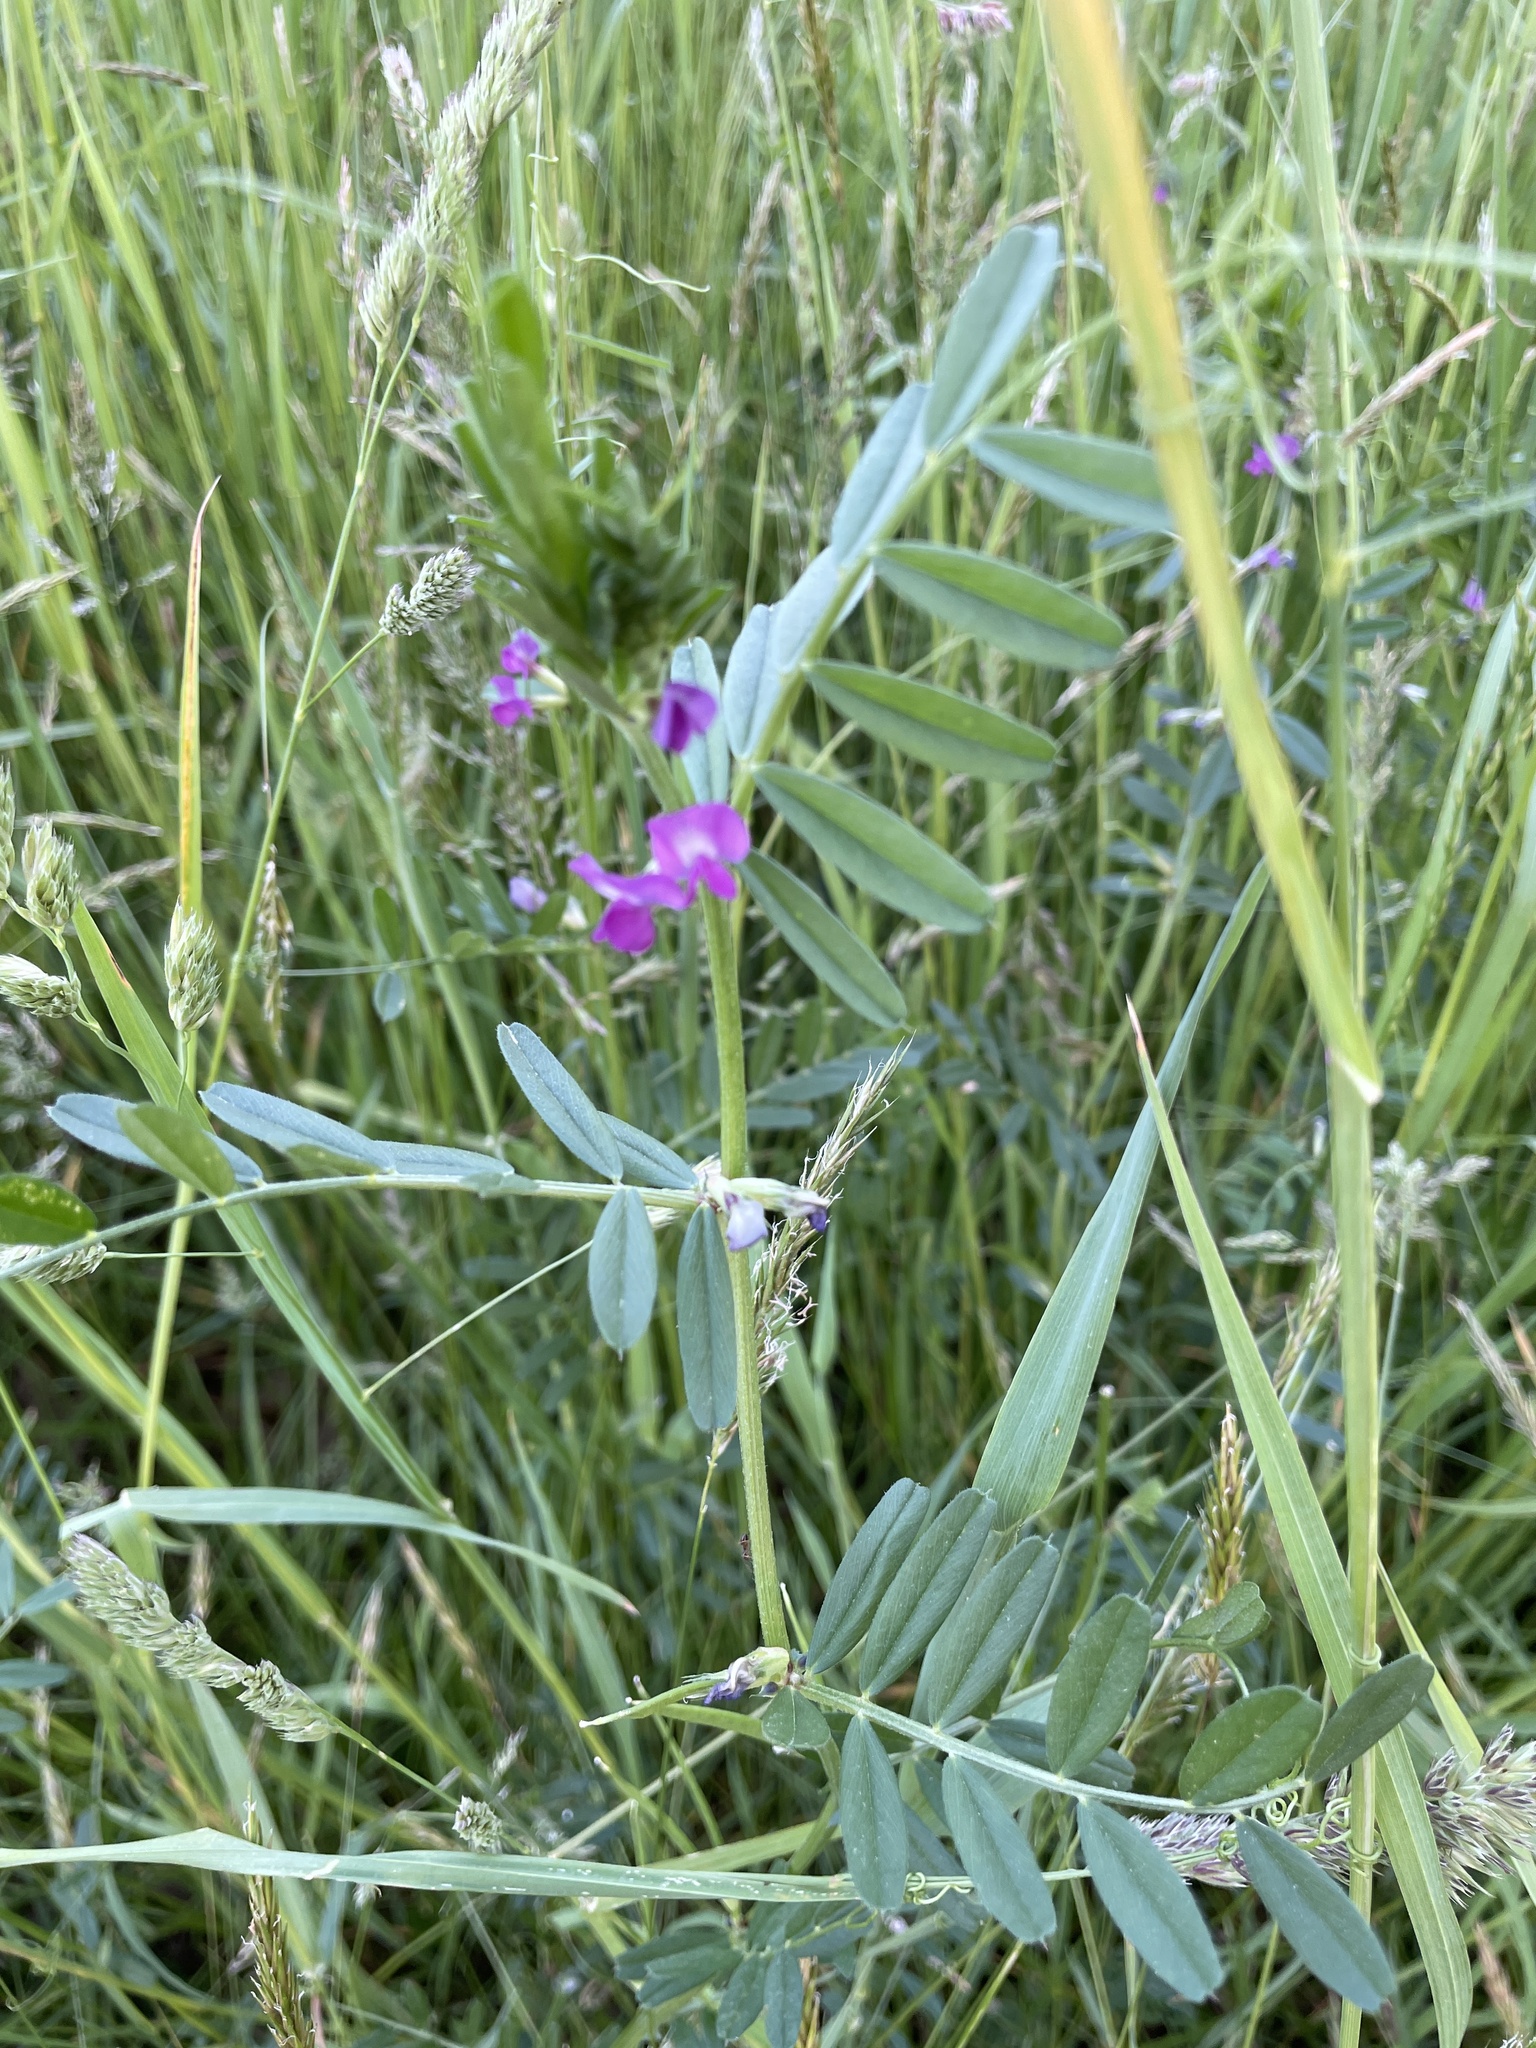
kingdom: Plantae
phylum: Tracheophyta
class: Magnoliopsida
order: Fabales
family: Fabaceae
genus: Vicia
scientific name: Vicia sativa
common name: Garden vetch
